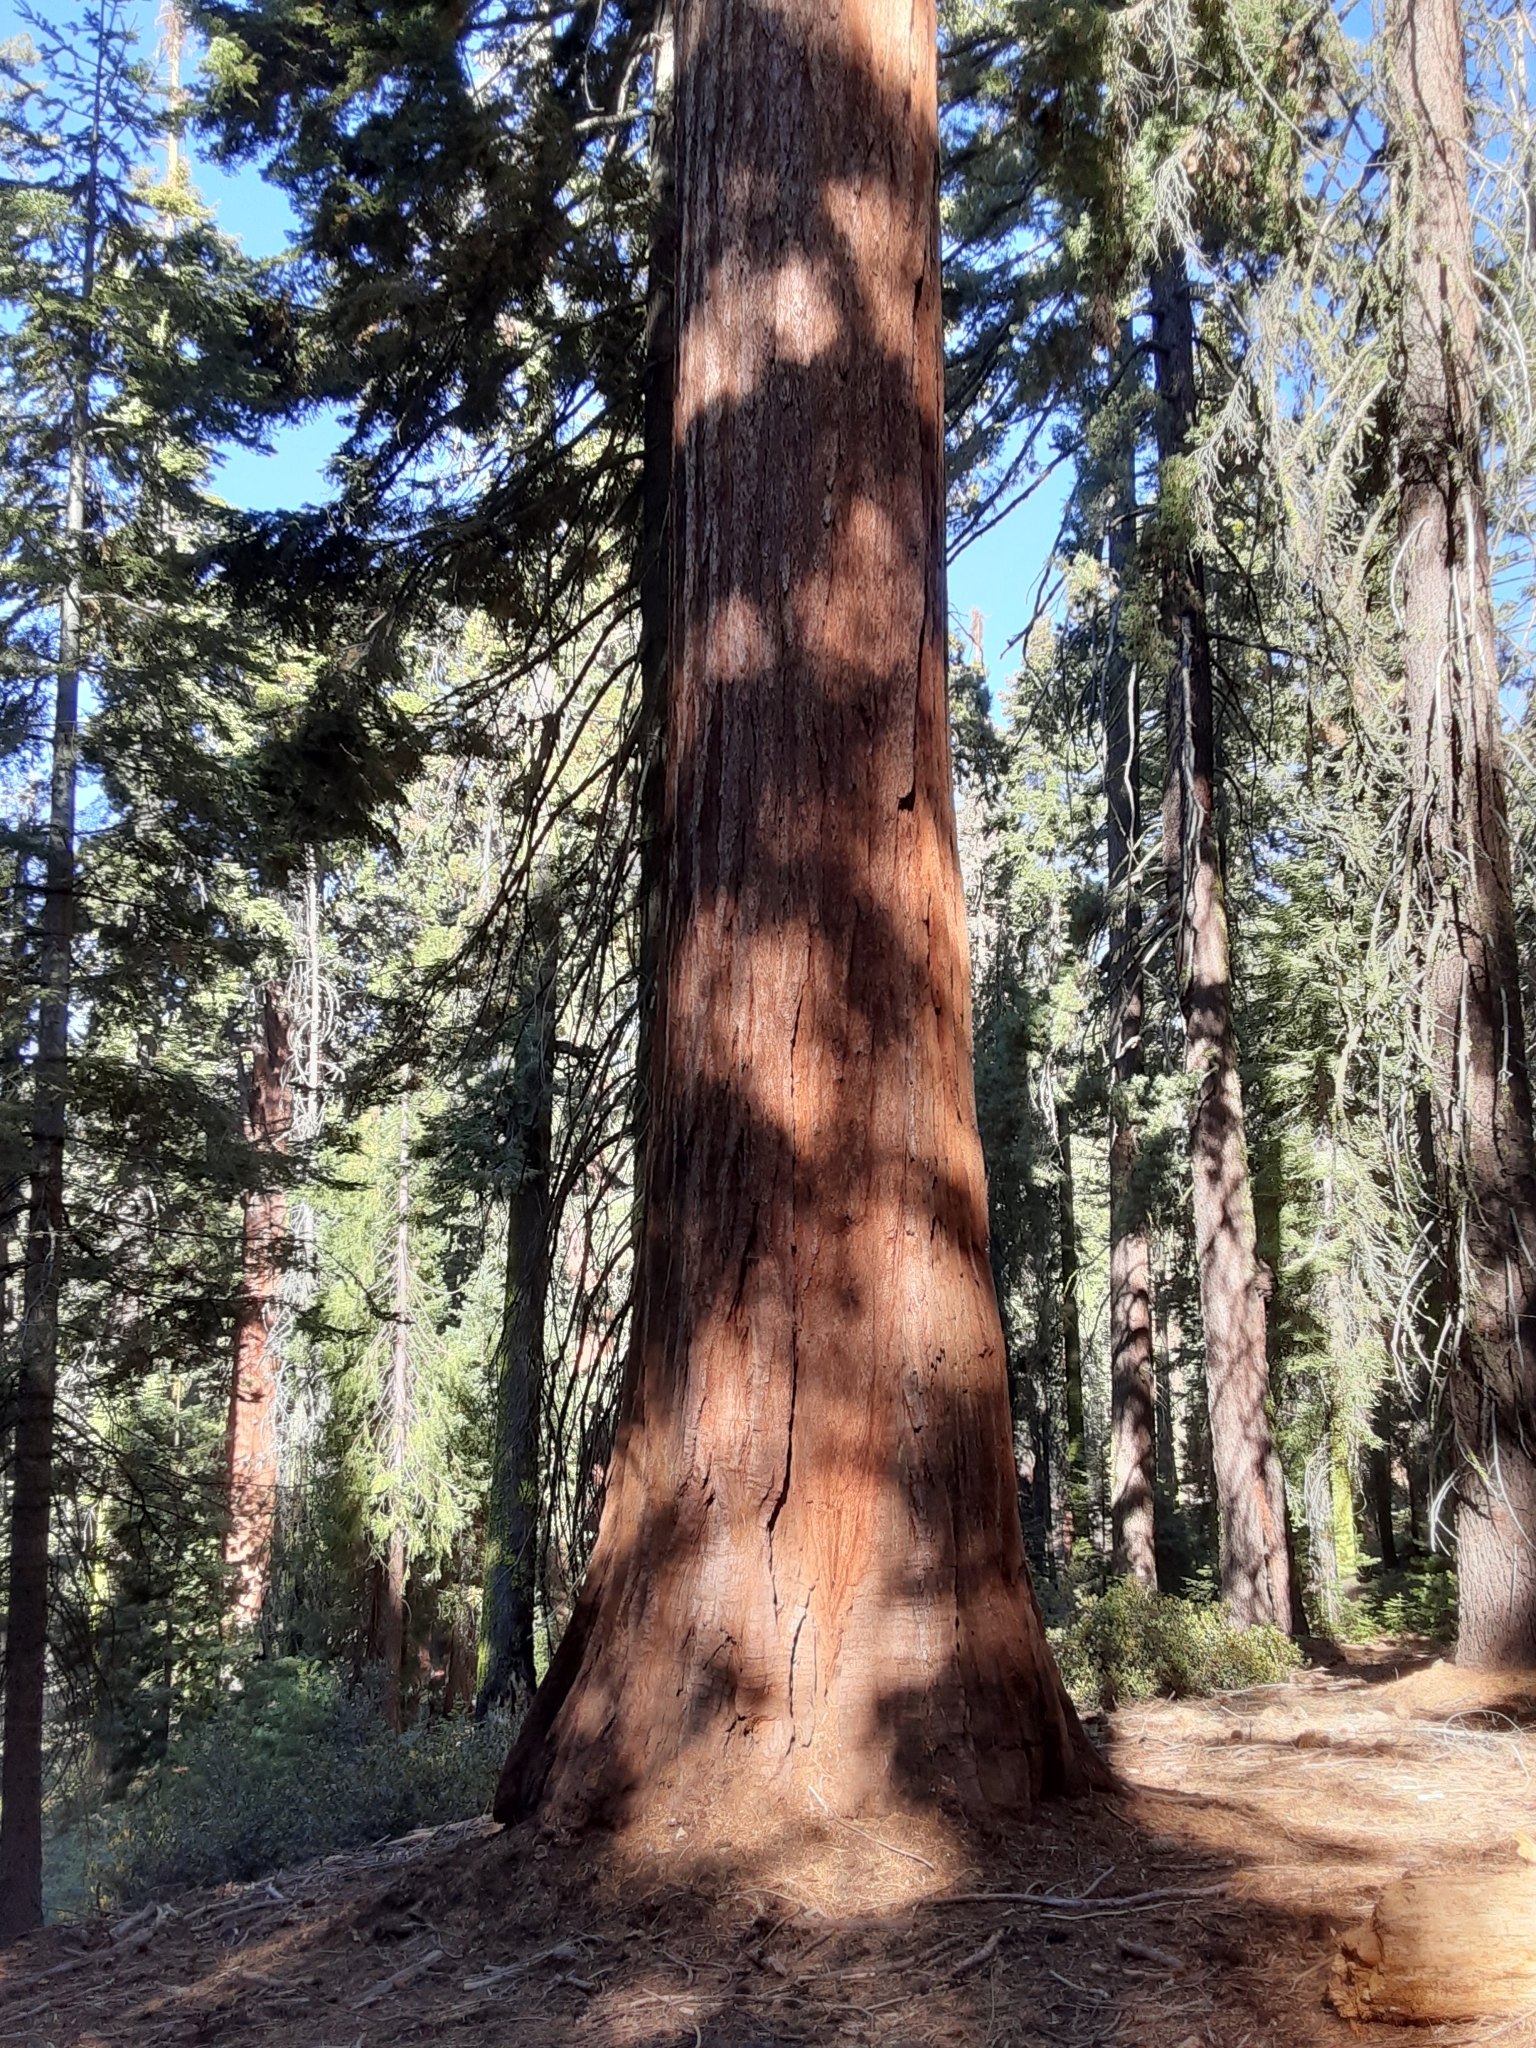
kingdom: Plantae
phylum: Tracheophyta
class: Pinopsida
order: Pinales
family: Cupressaceae
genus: Sequoiadendron
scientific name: Sequoiadendron giganteum
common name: Wellingtonia
